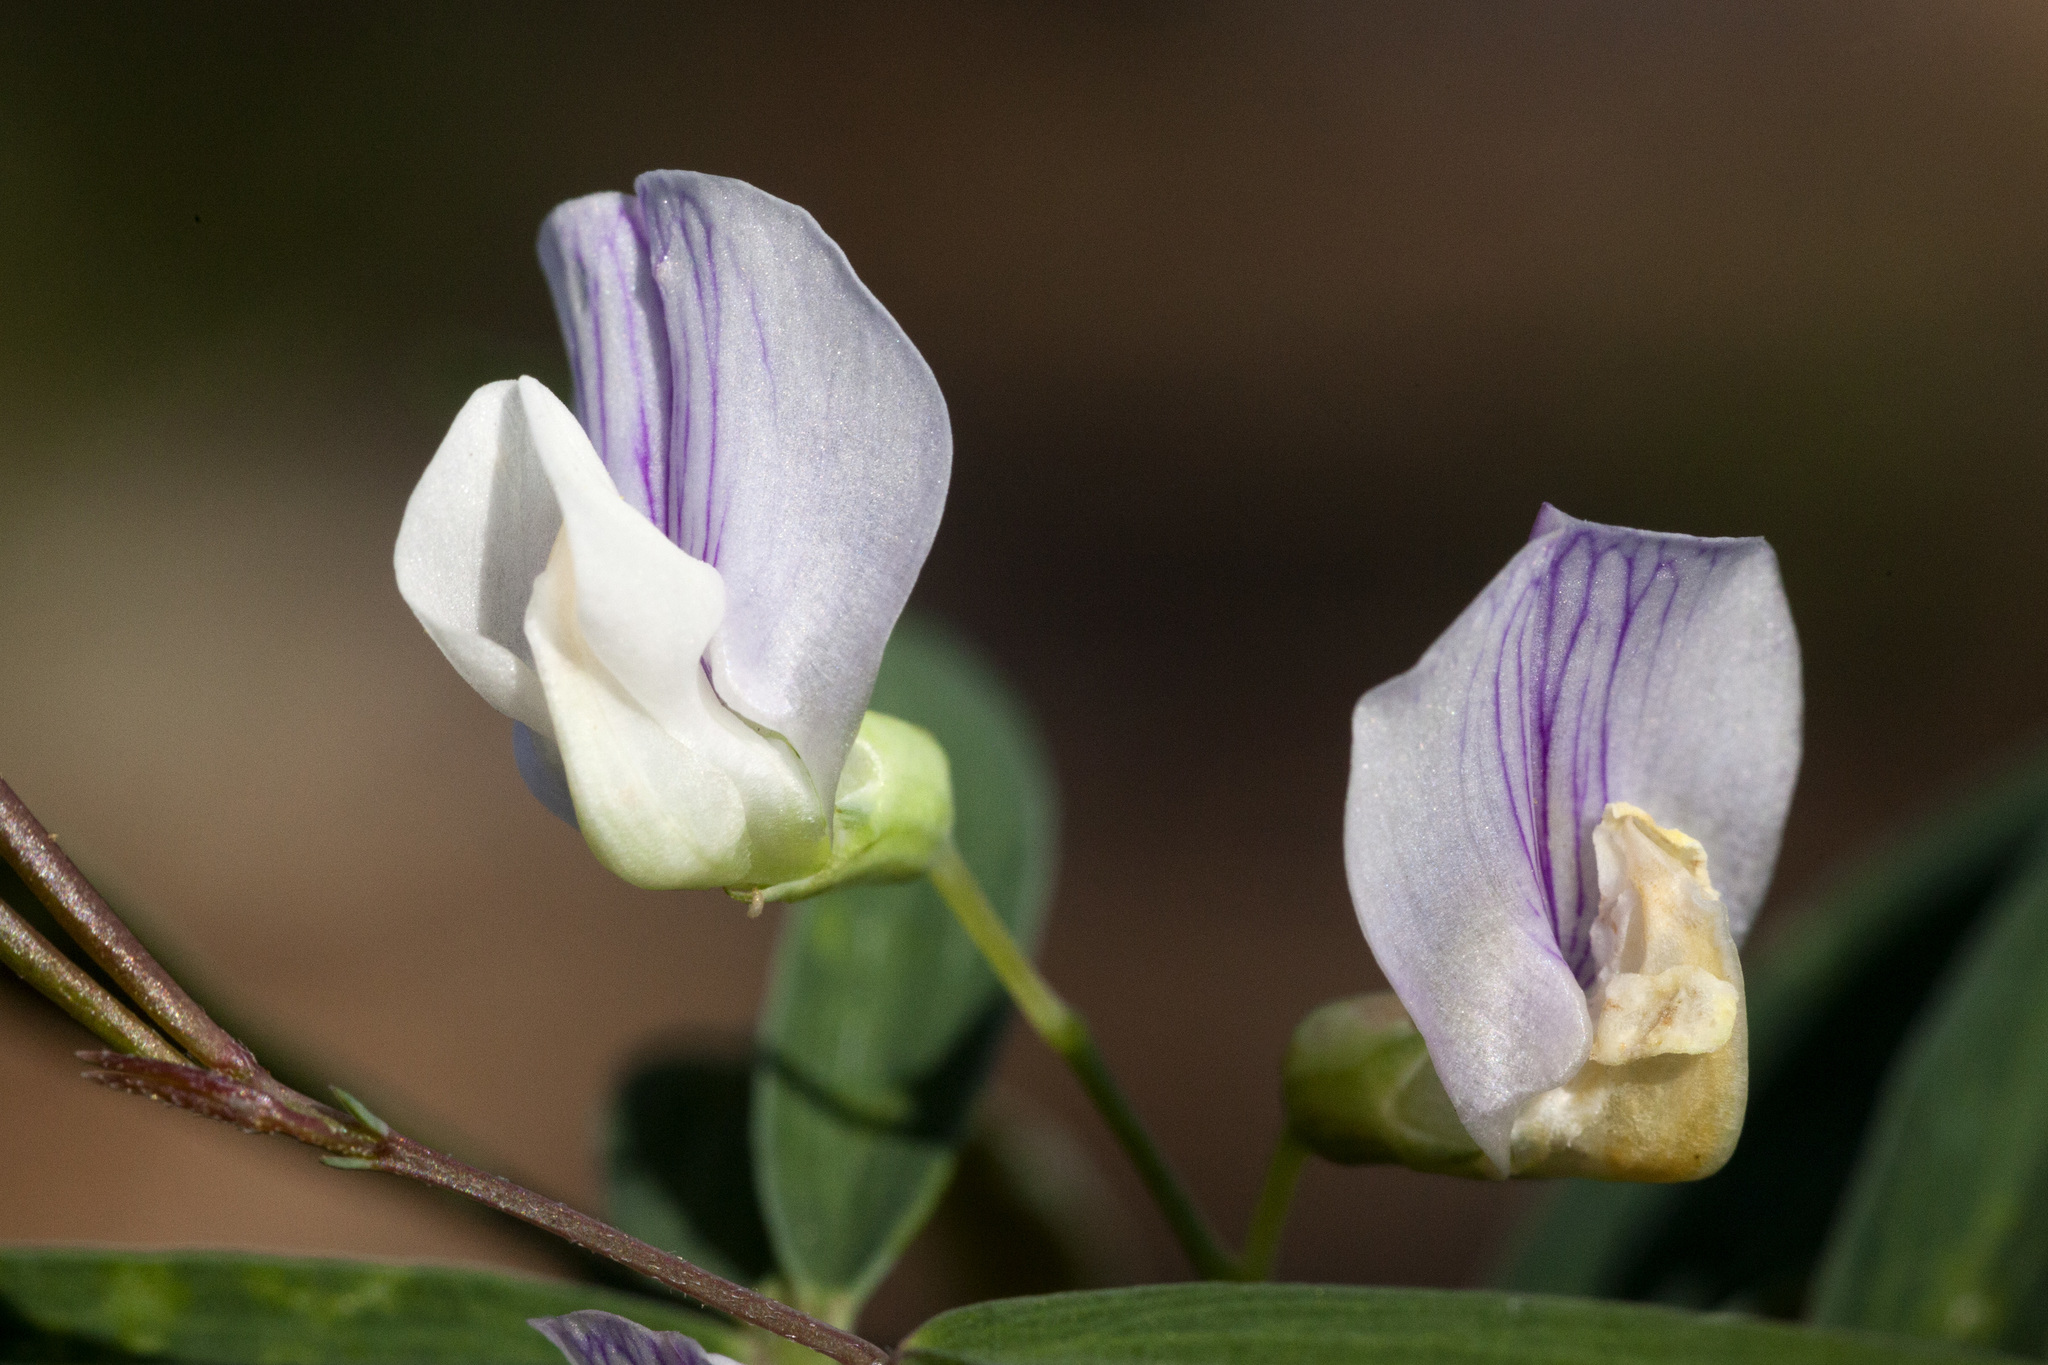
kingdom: Plantae
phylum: Tracheophyta
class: Magnoliopsida
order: Fabales
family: Fabaceae
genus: Lathyrus
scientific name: Lathyrus lanszwertii
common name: Lanszwert's vetchling
